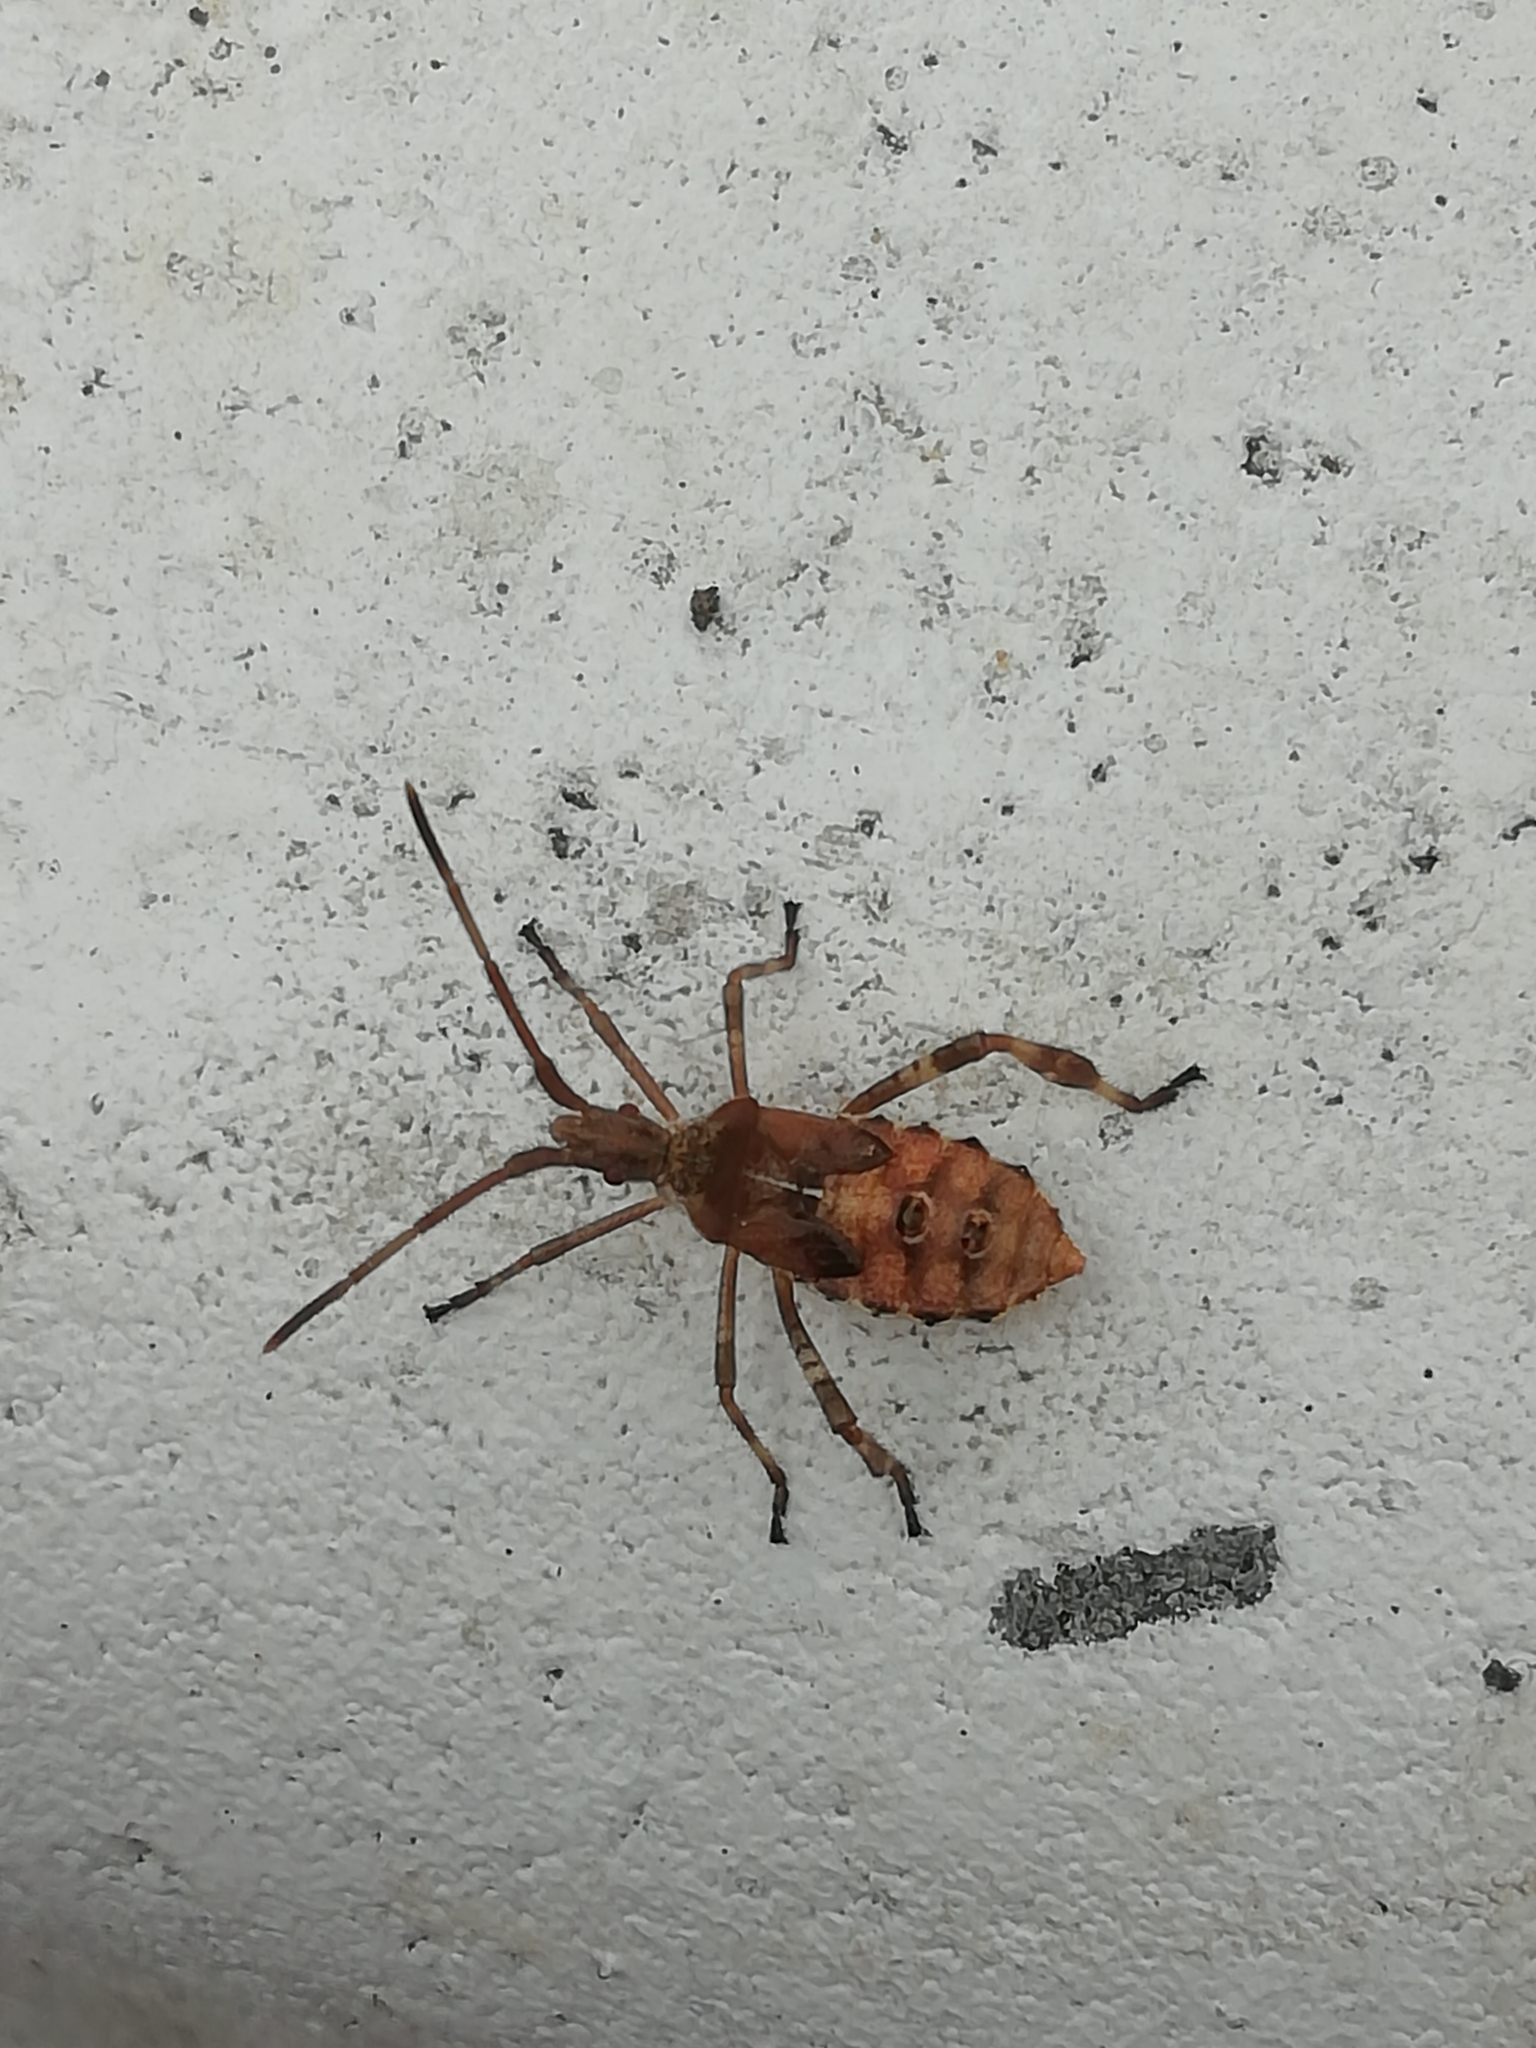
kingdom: Animalia
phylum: Arthropoda
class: Insecta
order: Hemiptera
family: Coreidae
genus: Leptoglossus
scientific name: Leptoglossus occidentalis
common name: Western conifer-seed bug
